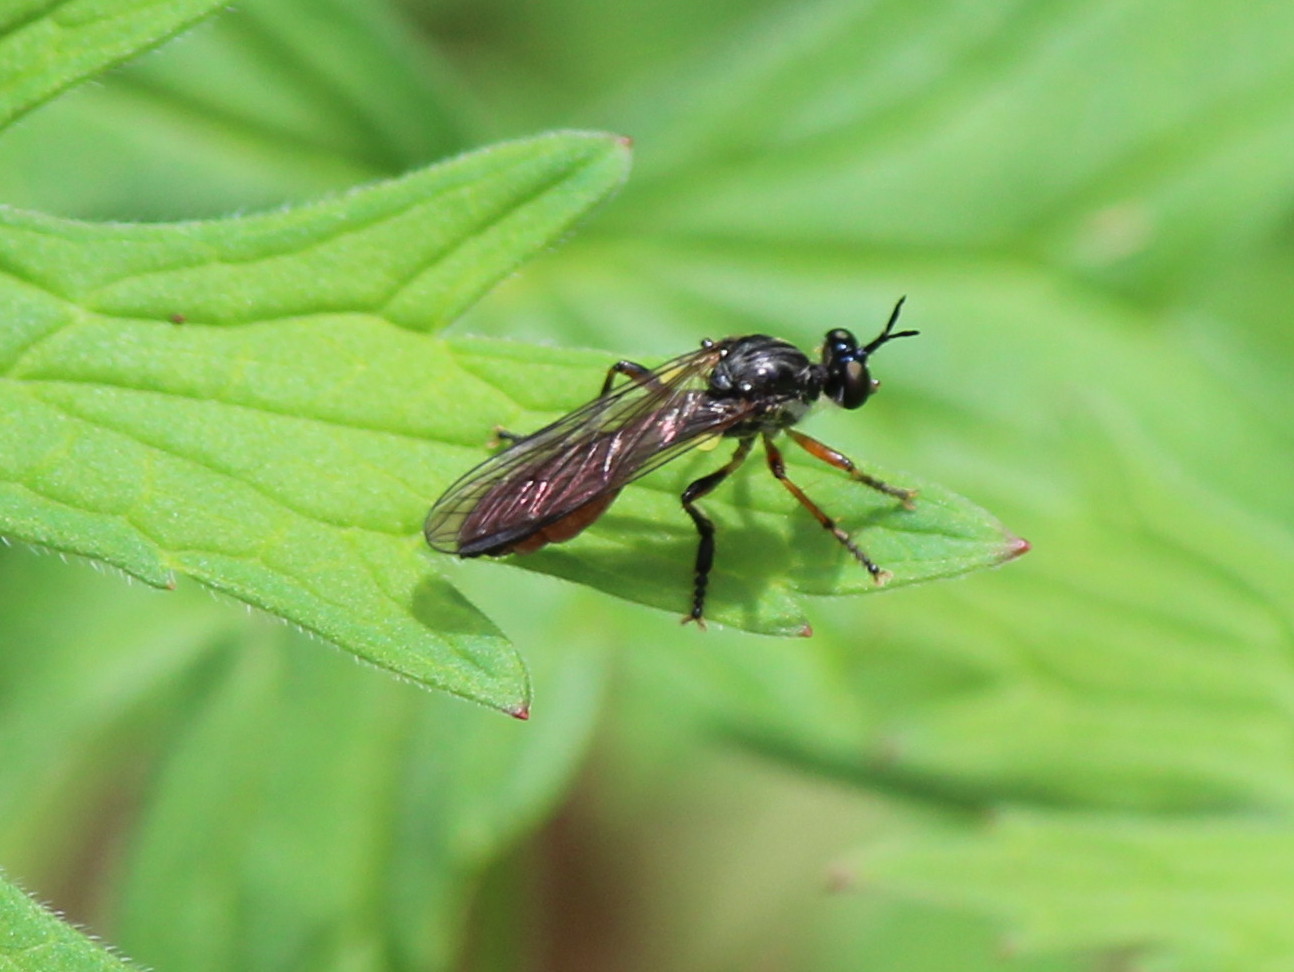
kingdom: Animalia
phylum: Arthropoda
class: Insecta
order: Diptera
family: Asilidae
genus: Dioctria
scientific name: Dioctria hyalipennis
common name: Stripe-legged robberfly
